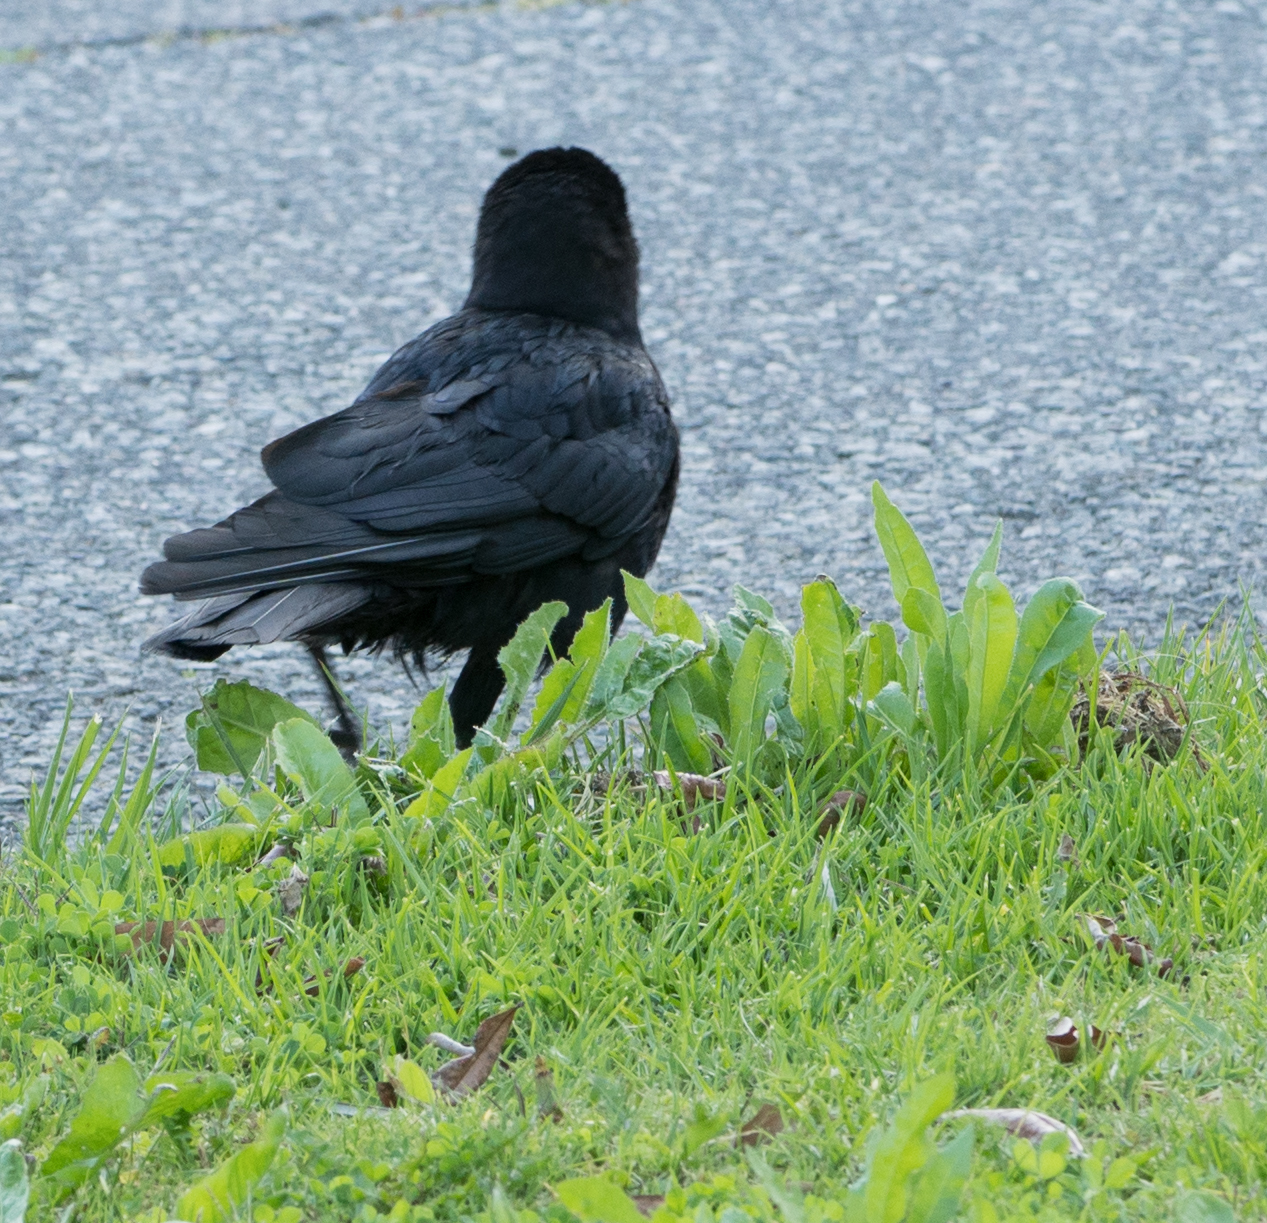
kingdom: Animalia
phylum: Chordata
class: Aves
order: Passeriformes
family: Corvidae
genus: Corvus
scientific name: Corvus brachyrhynchos
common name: American crow
